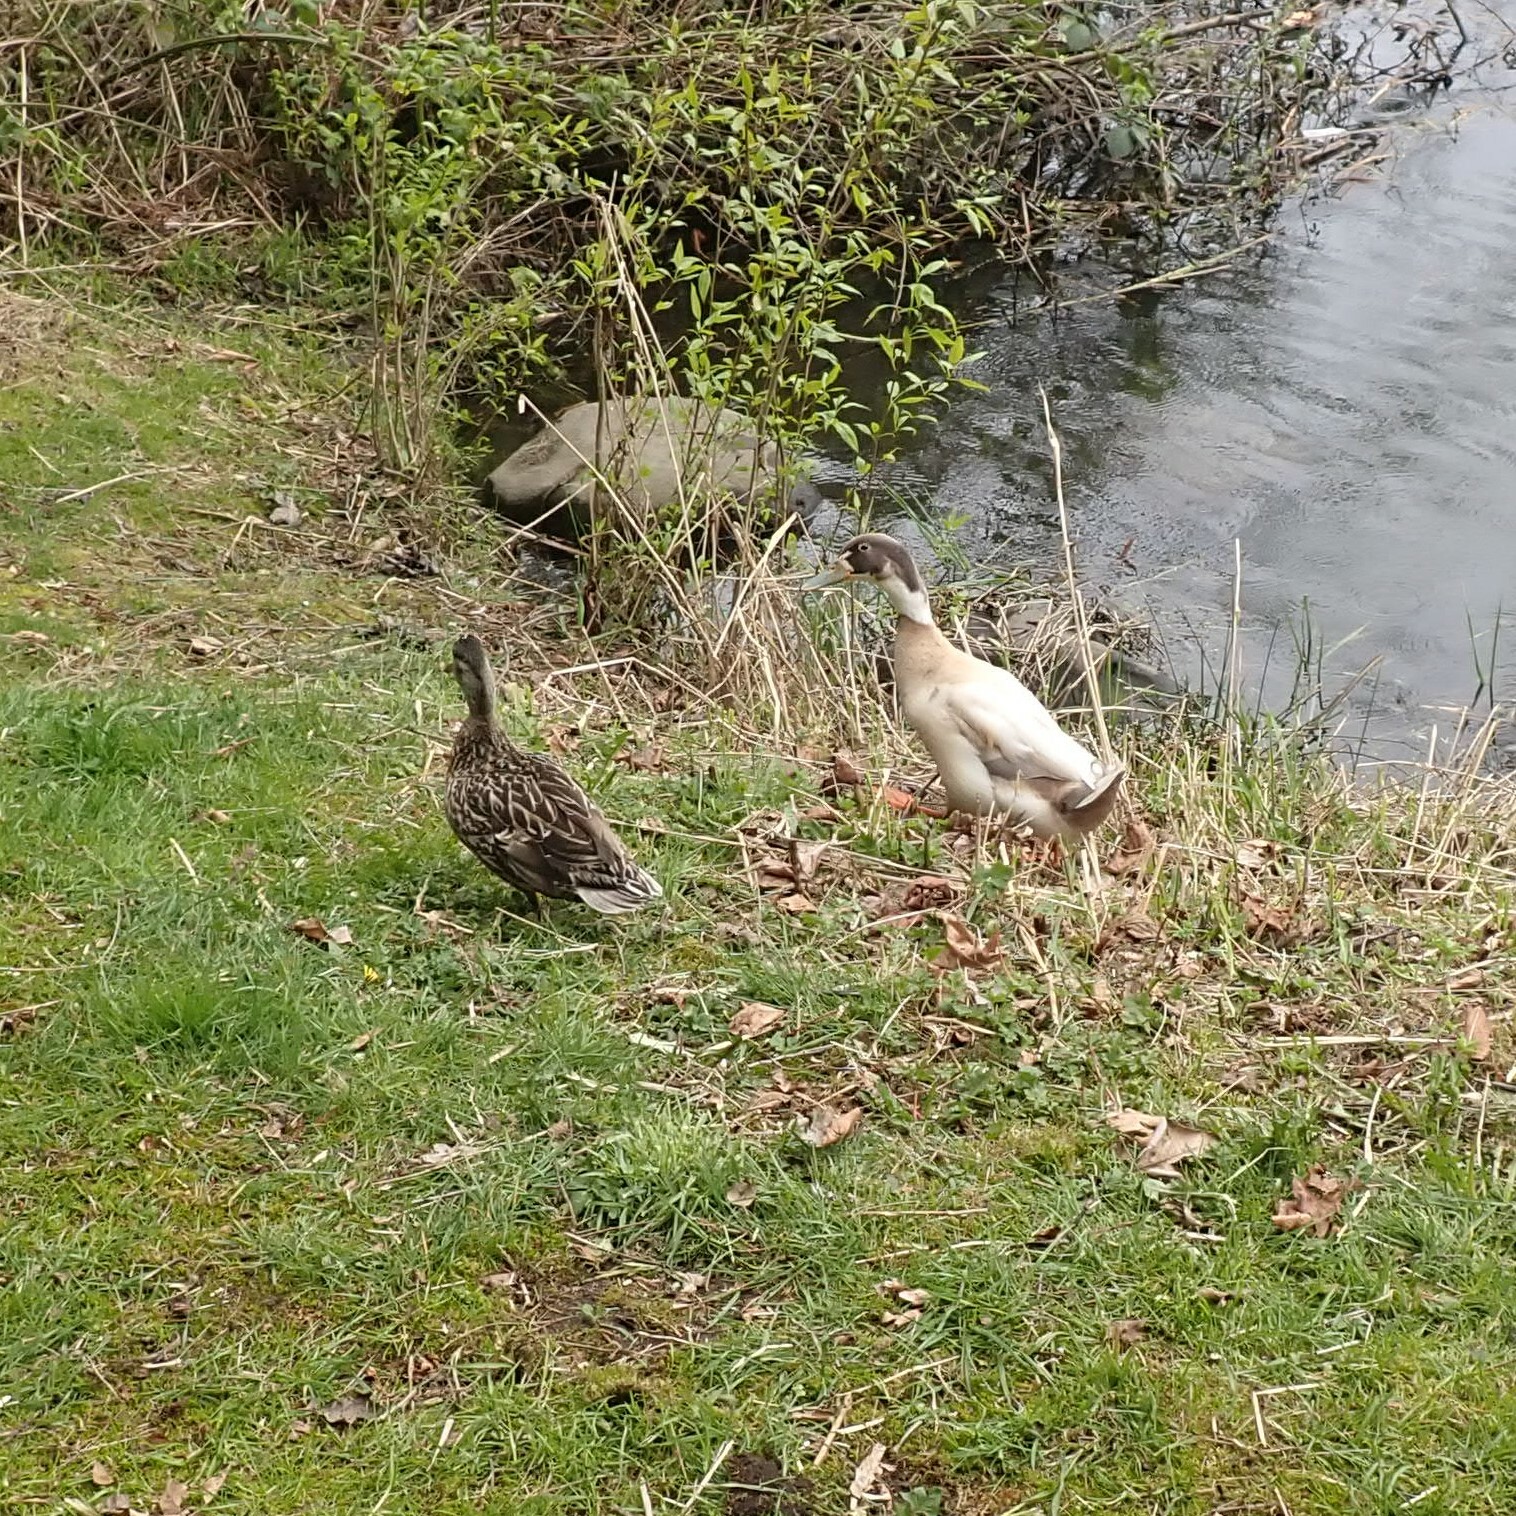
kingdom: Animalia
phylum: Chordata
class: Aves
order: Anseriformes
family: Anatidae
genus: Anas
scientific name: Anas platyrhynchos
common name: Mallard
